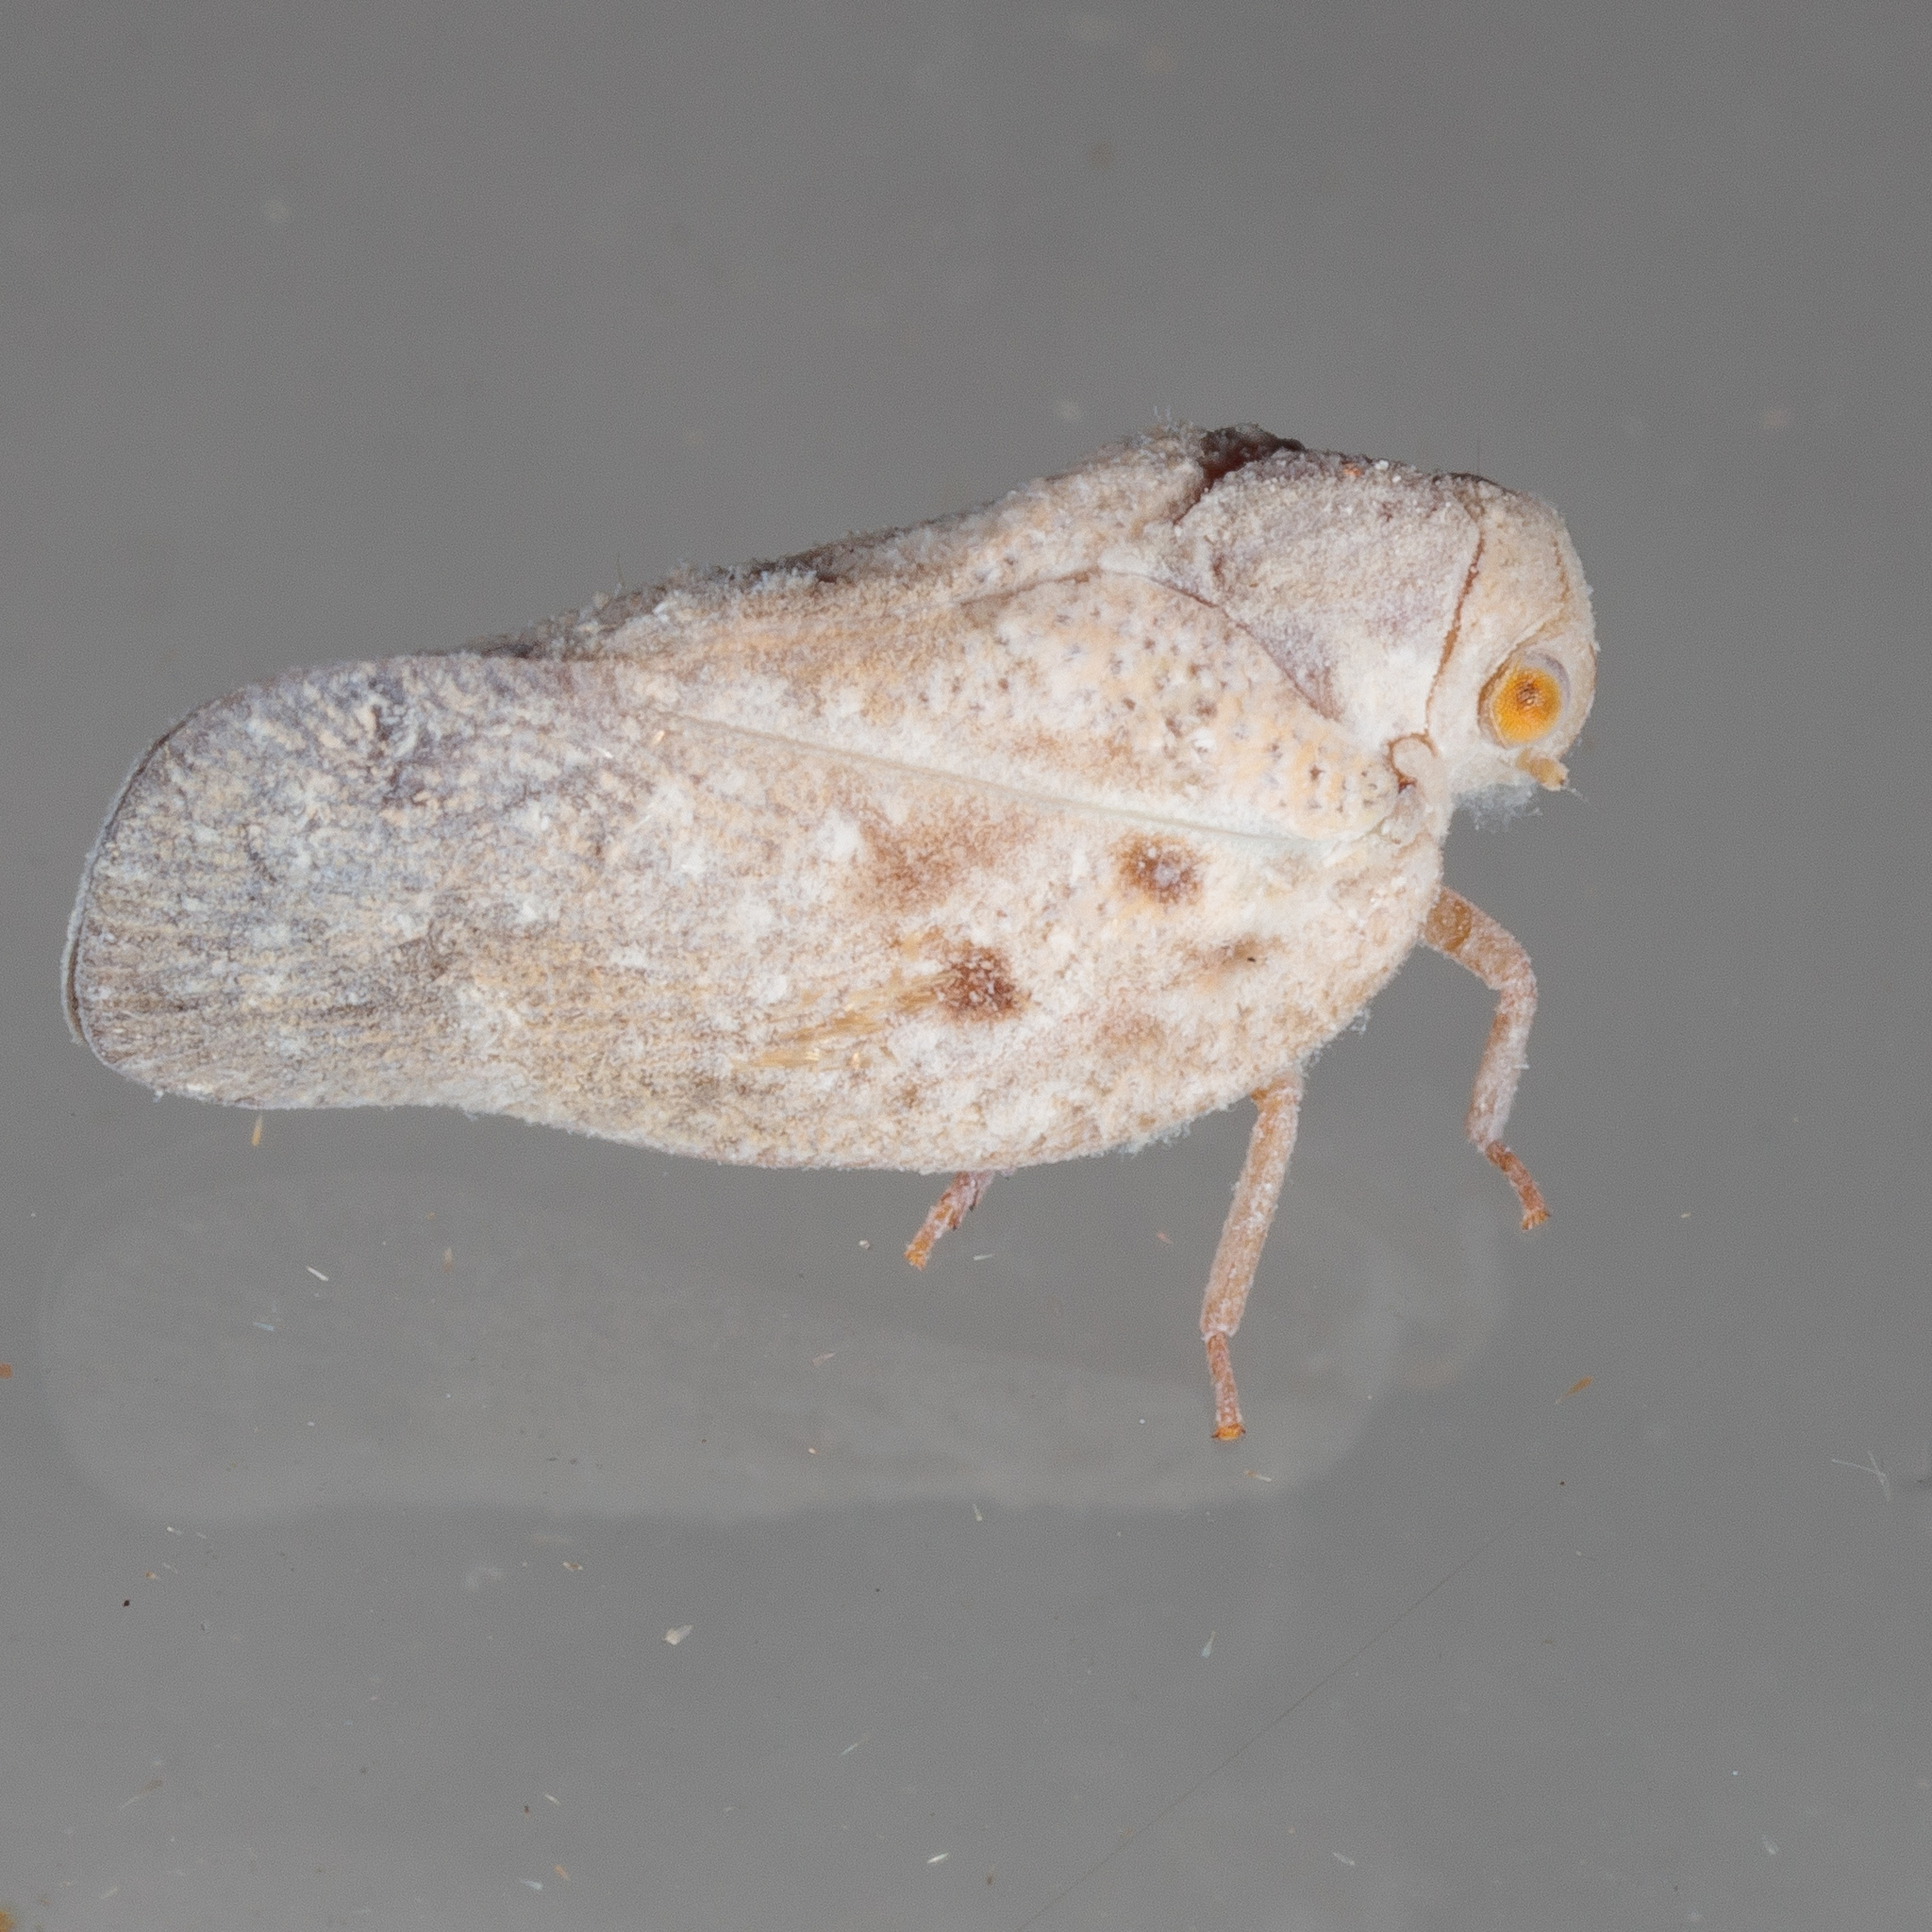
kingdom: Animalia
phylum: Arthropoda
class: Insecta
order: Hemiptera
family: Flatidae
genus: Metcalfa
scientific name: Metcalfa pruinosa
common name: Citrus flatid planthopper
